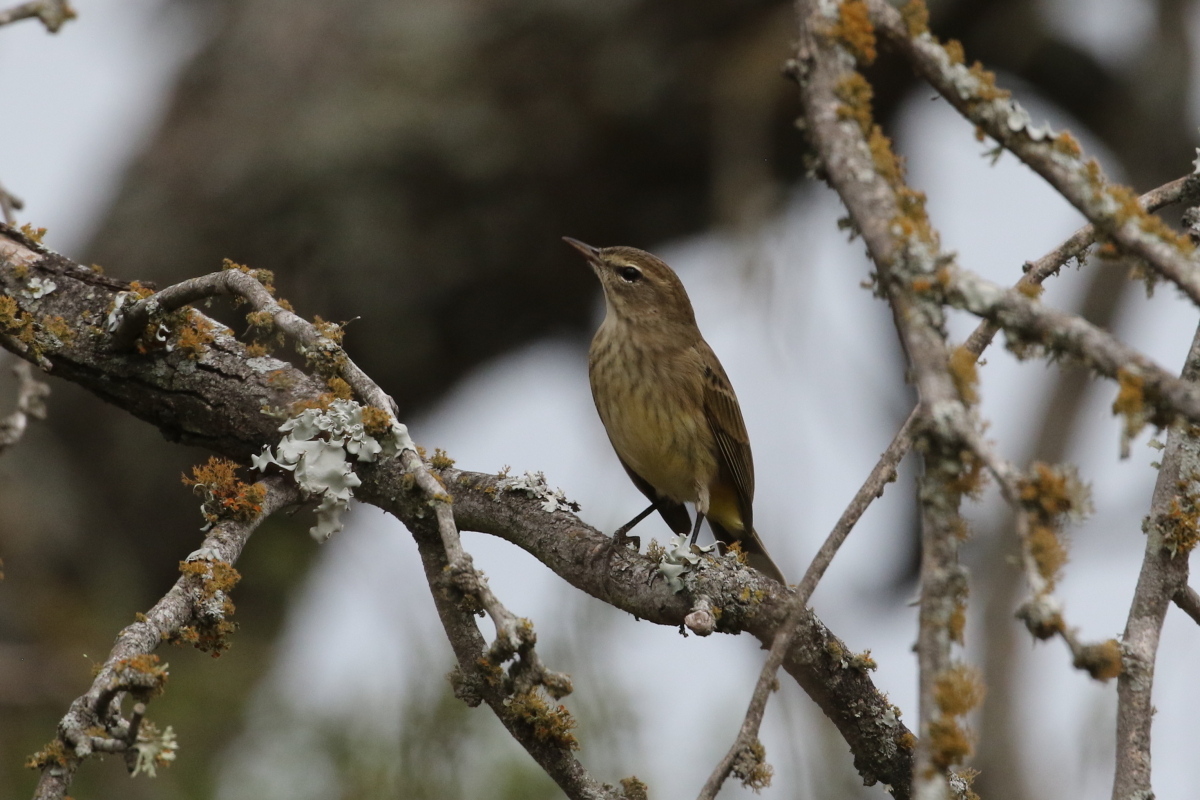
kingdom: Animalia
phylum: Chordata
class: Aves
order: Passeriformes
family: Parulidae
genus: Setophaga
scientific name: Setophaga palmarum
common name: Palm warbler
